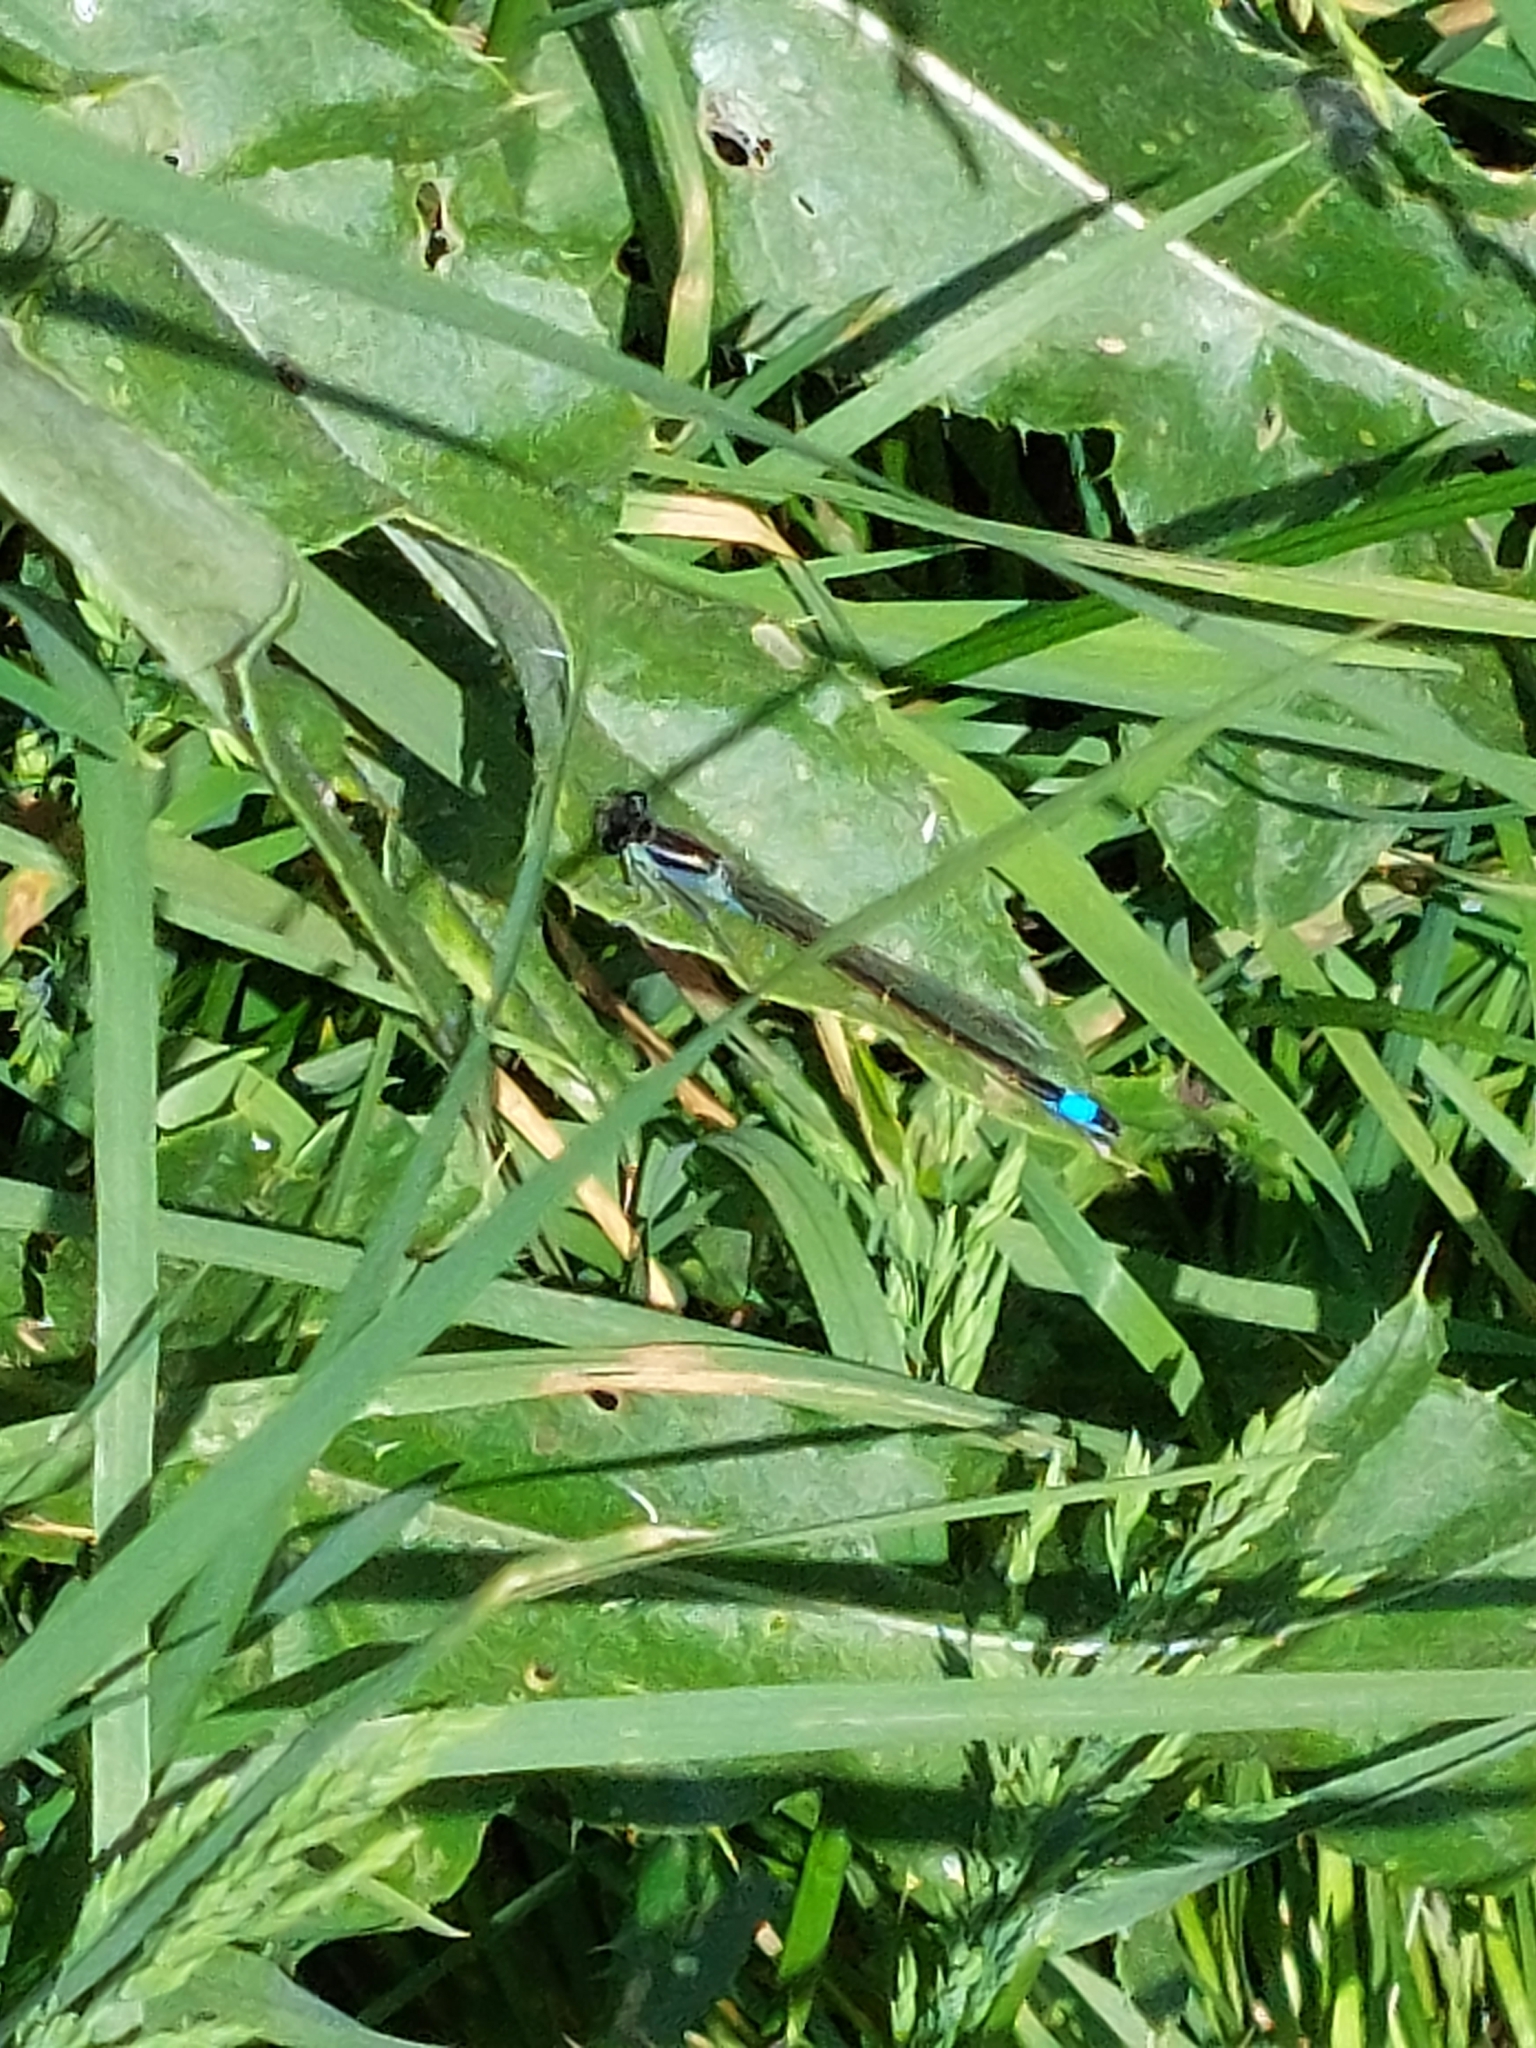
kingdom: Animalia
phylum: Arthropoda
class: Insecta
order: Odonata
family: Coenagrionidae
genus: Ischnura
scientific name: Ischnura elegans
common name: Blue-tailed damselfly
